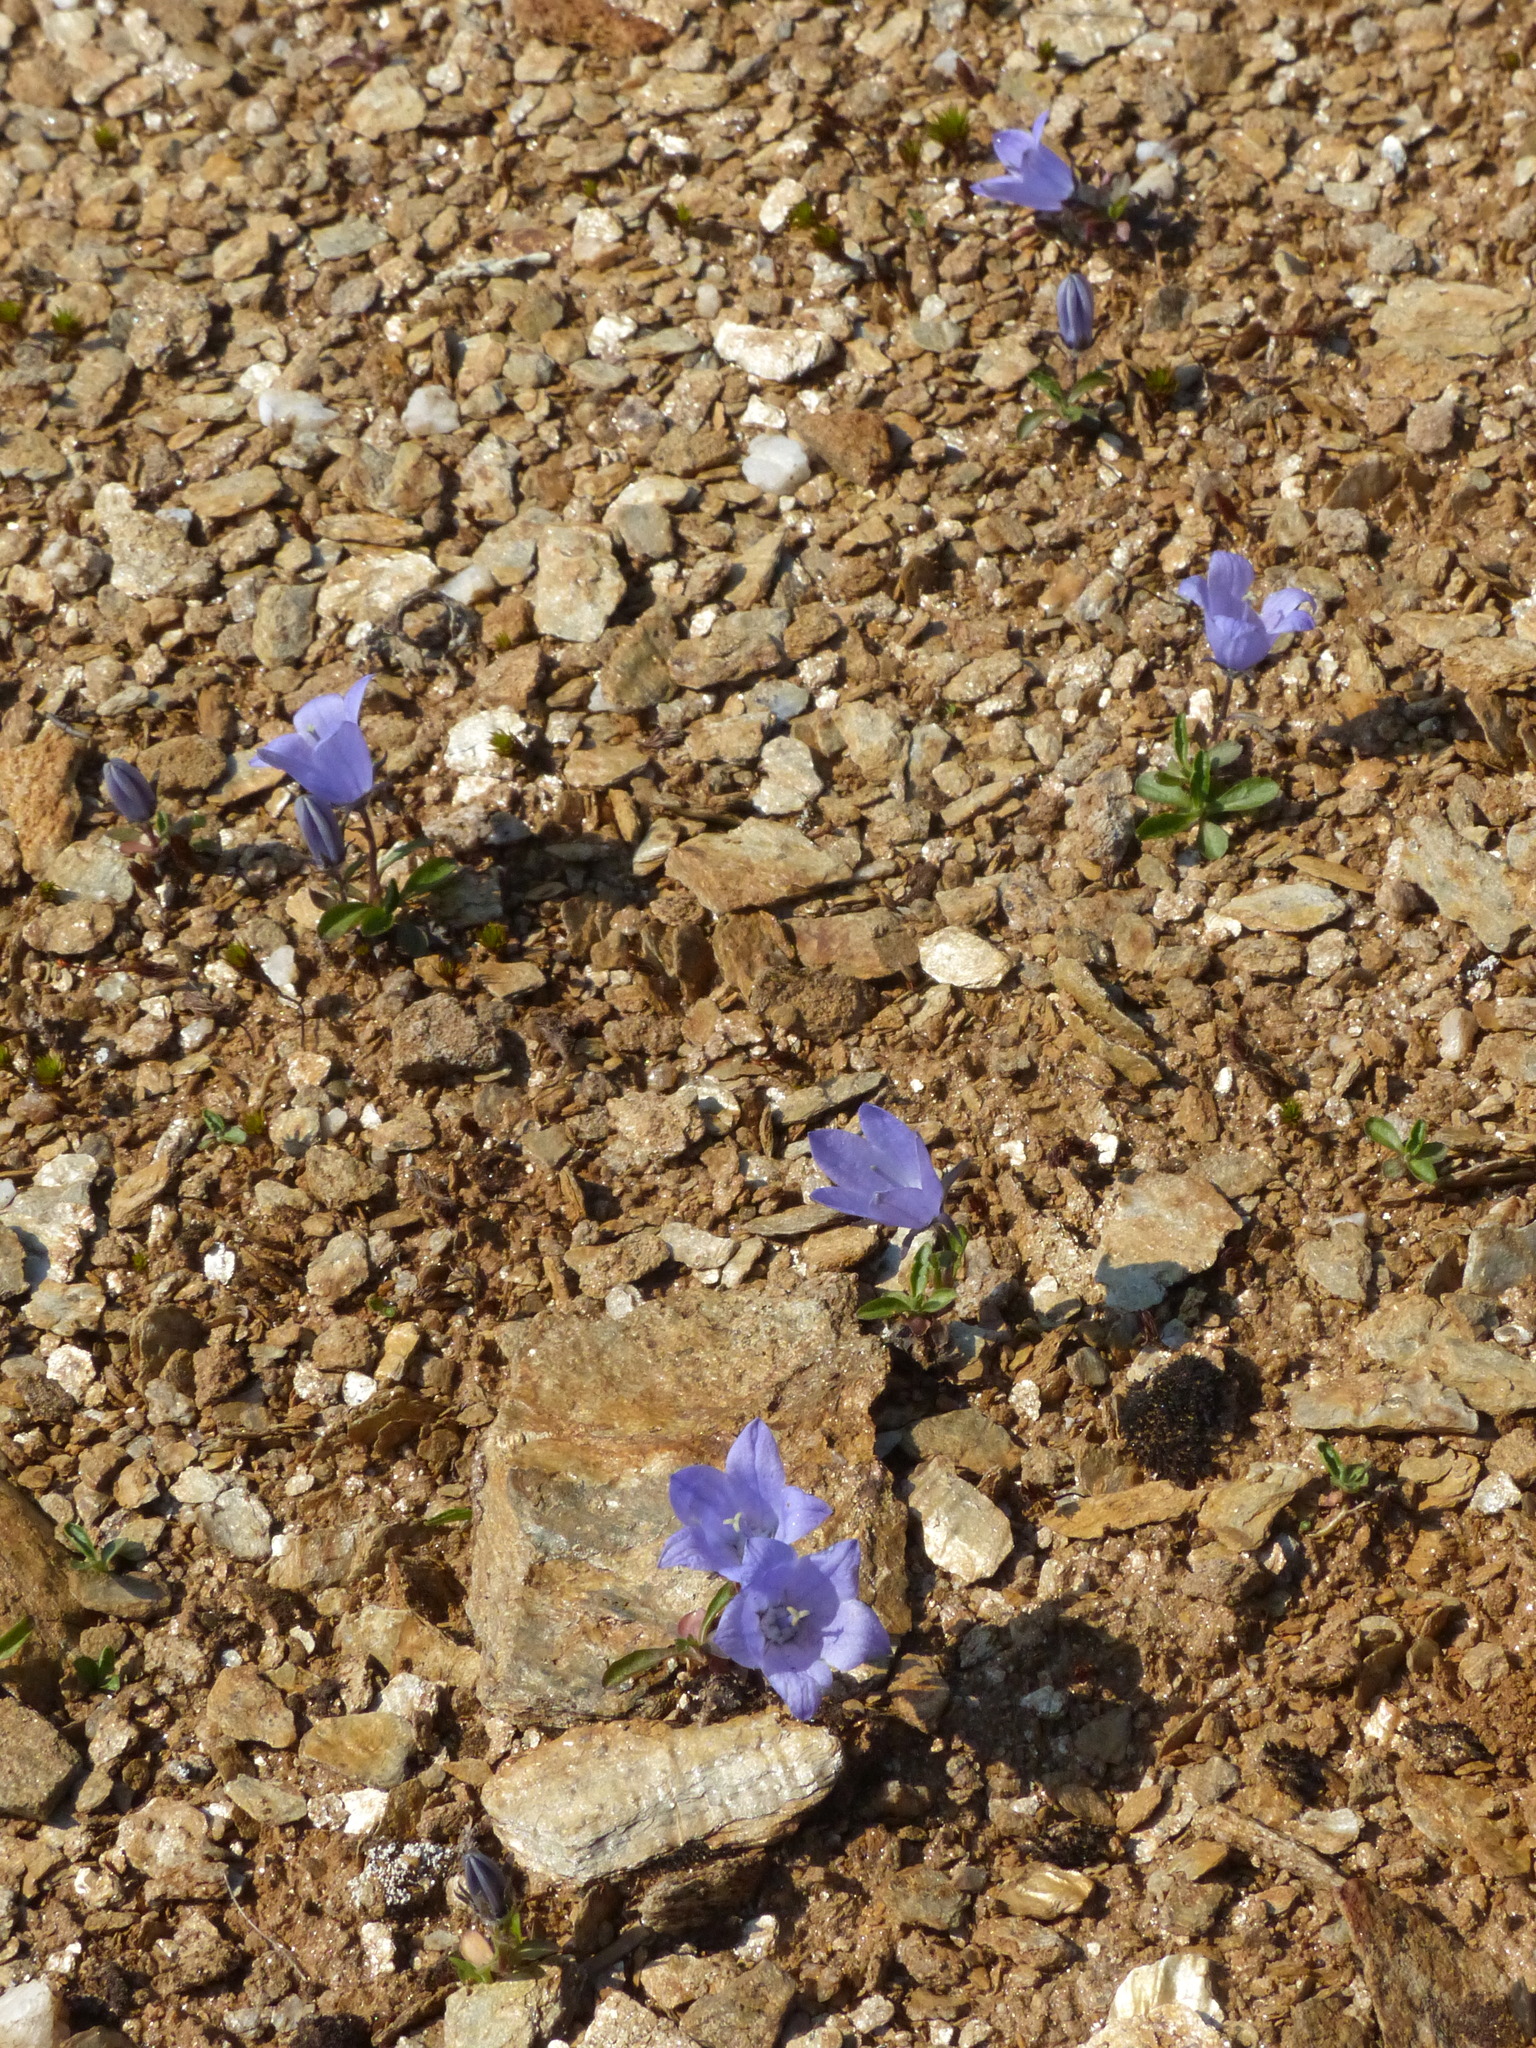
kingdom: Plantae
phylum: Tracheophyta
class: Magnoliopsida
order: Asterales
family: Campanulaceae
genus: Campanula
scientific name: Campanula lasiocarpa
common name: Mountain harebell
